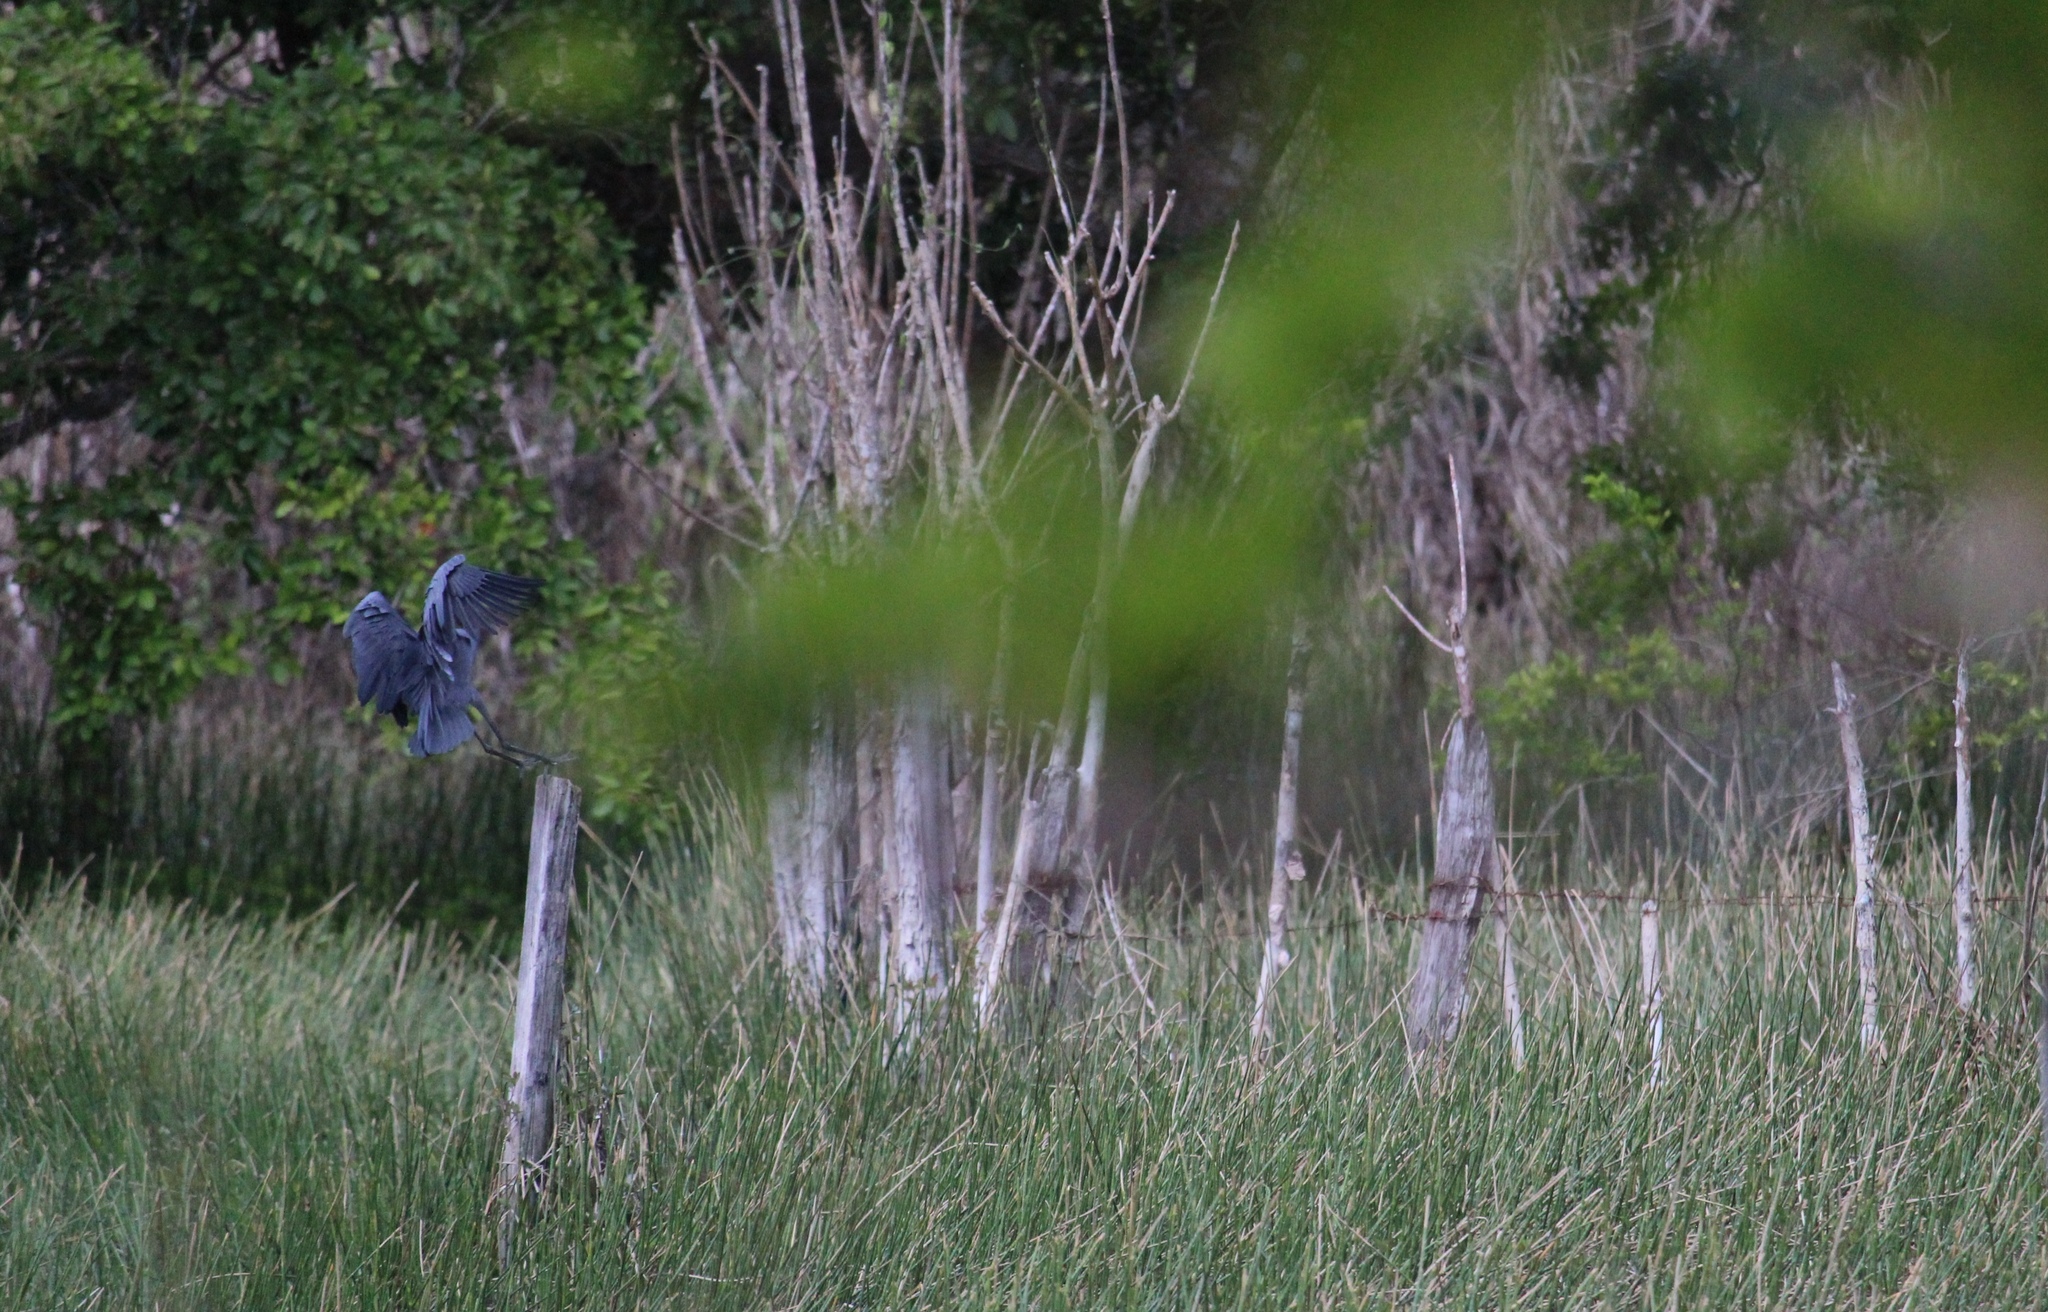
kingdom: Animalia
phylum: Chordata
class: Aves
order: Pelecaniformes
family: Ardeidae
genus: Egretta
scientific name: Egretta caerulea
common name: Little blue heron
